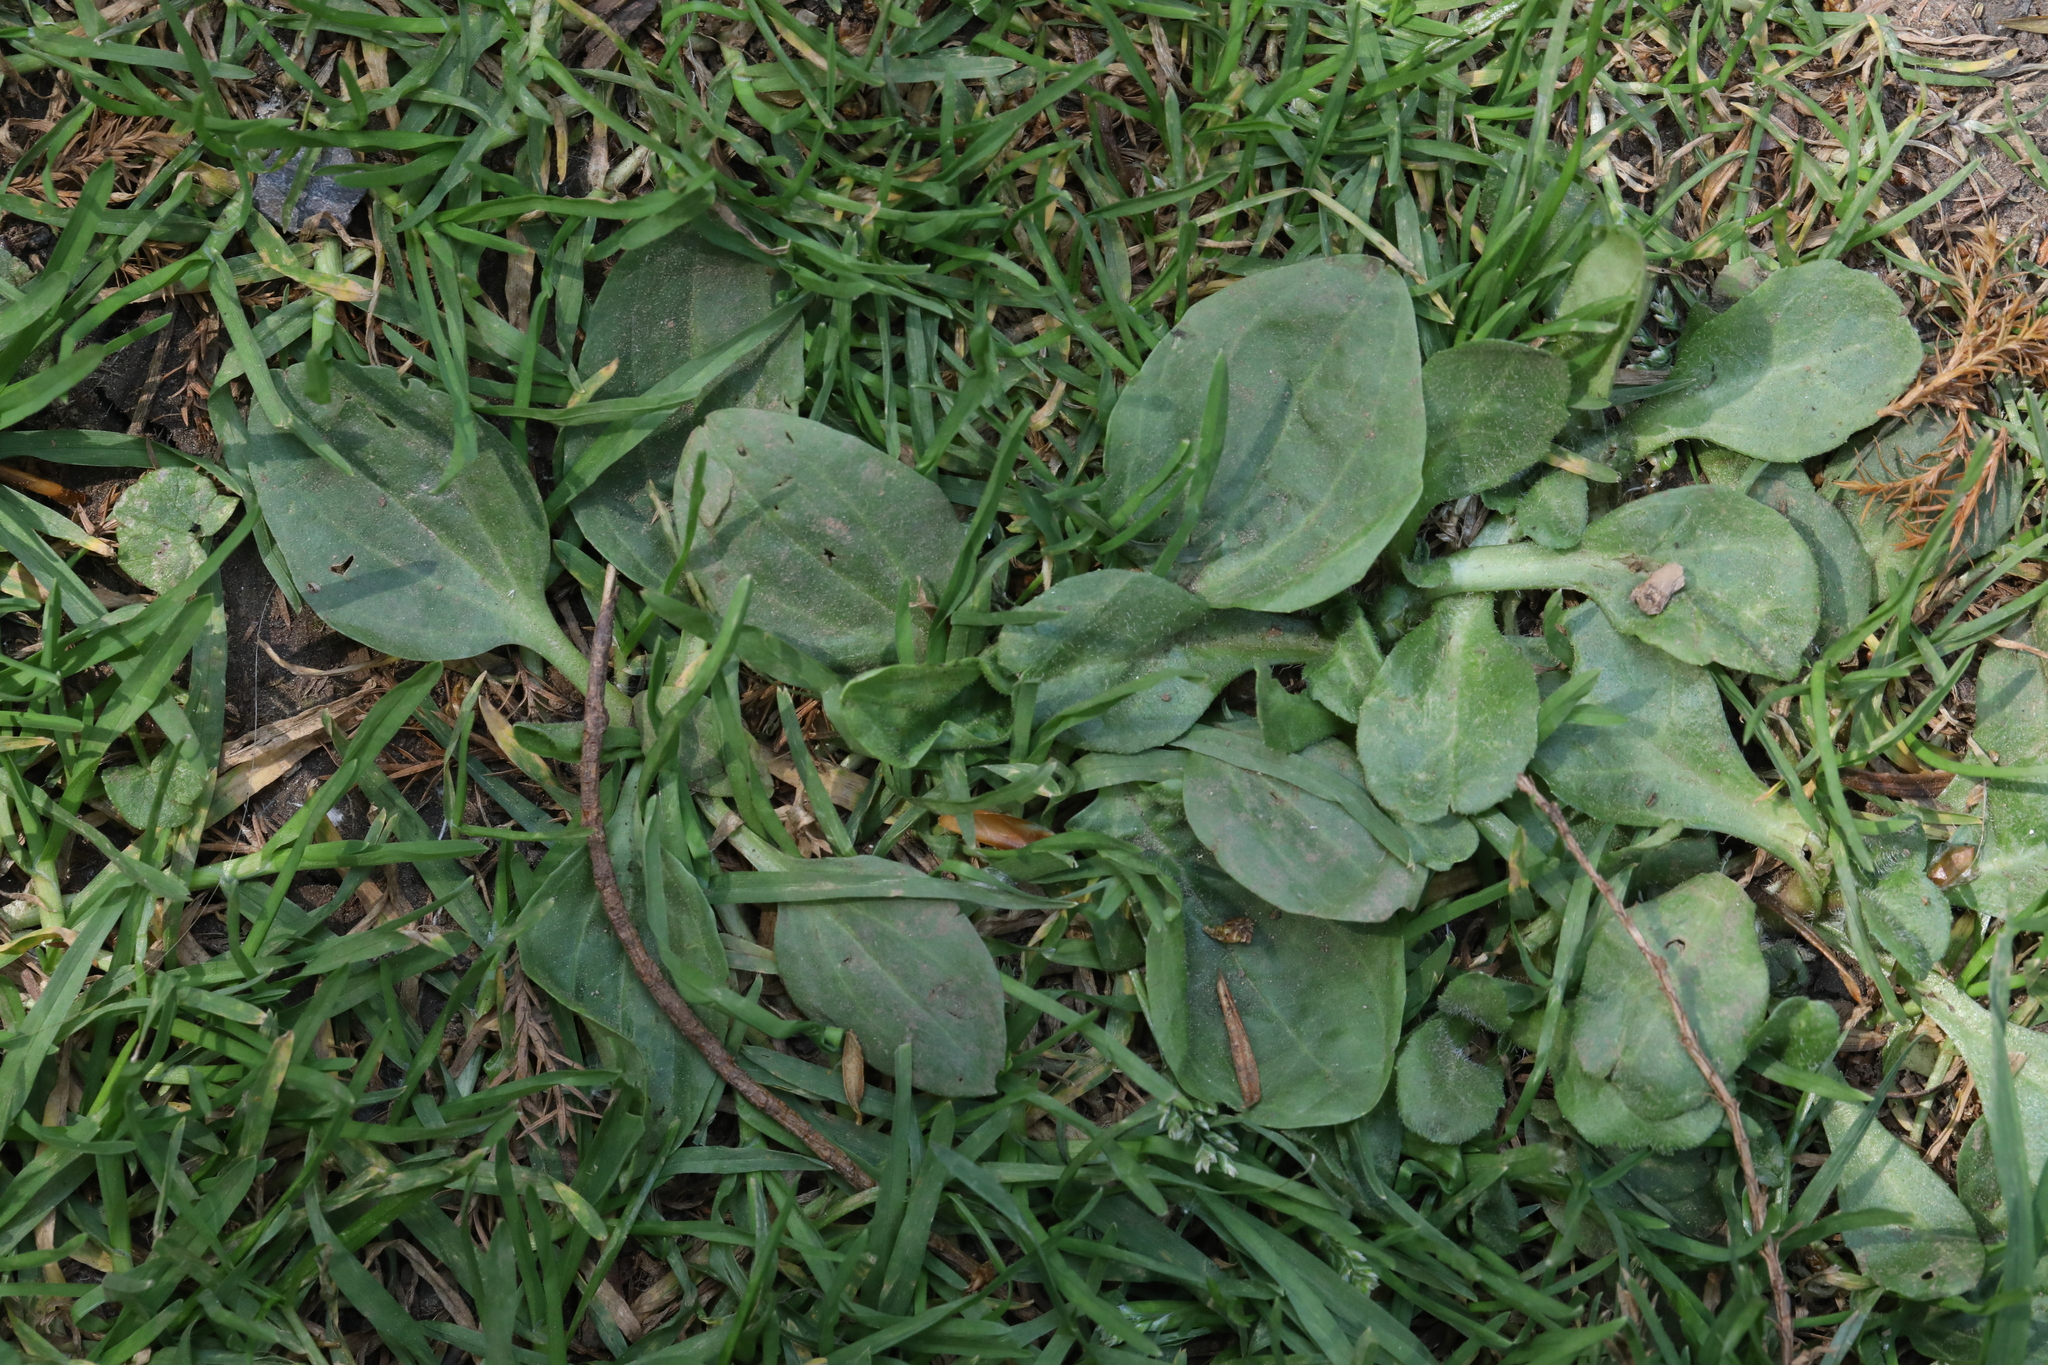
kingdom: Plantae
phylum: Tracheophyta
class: Magnoliopsida
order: Lamiales
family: Plantaginaceae
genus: Plantago
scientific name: Plantago major
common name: Common plantain
